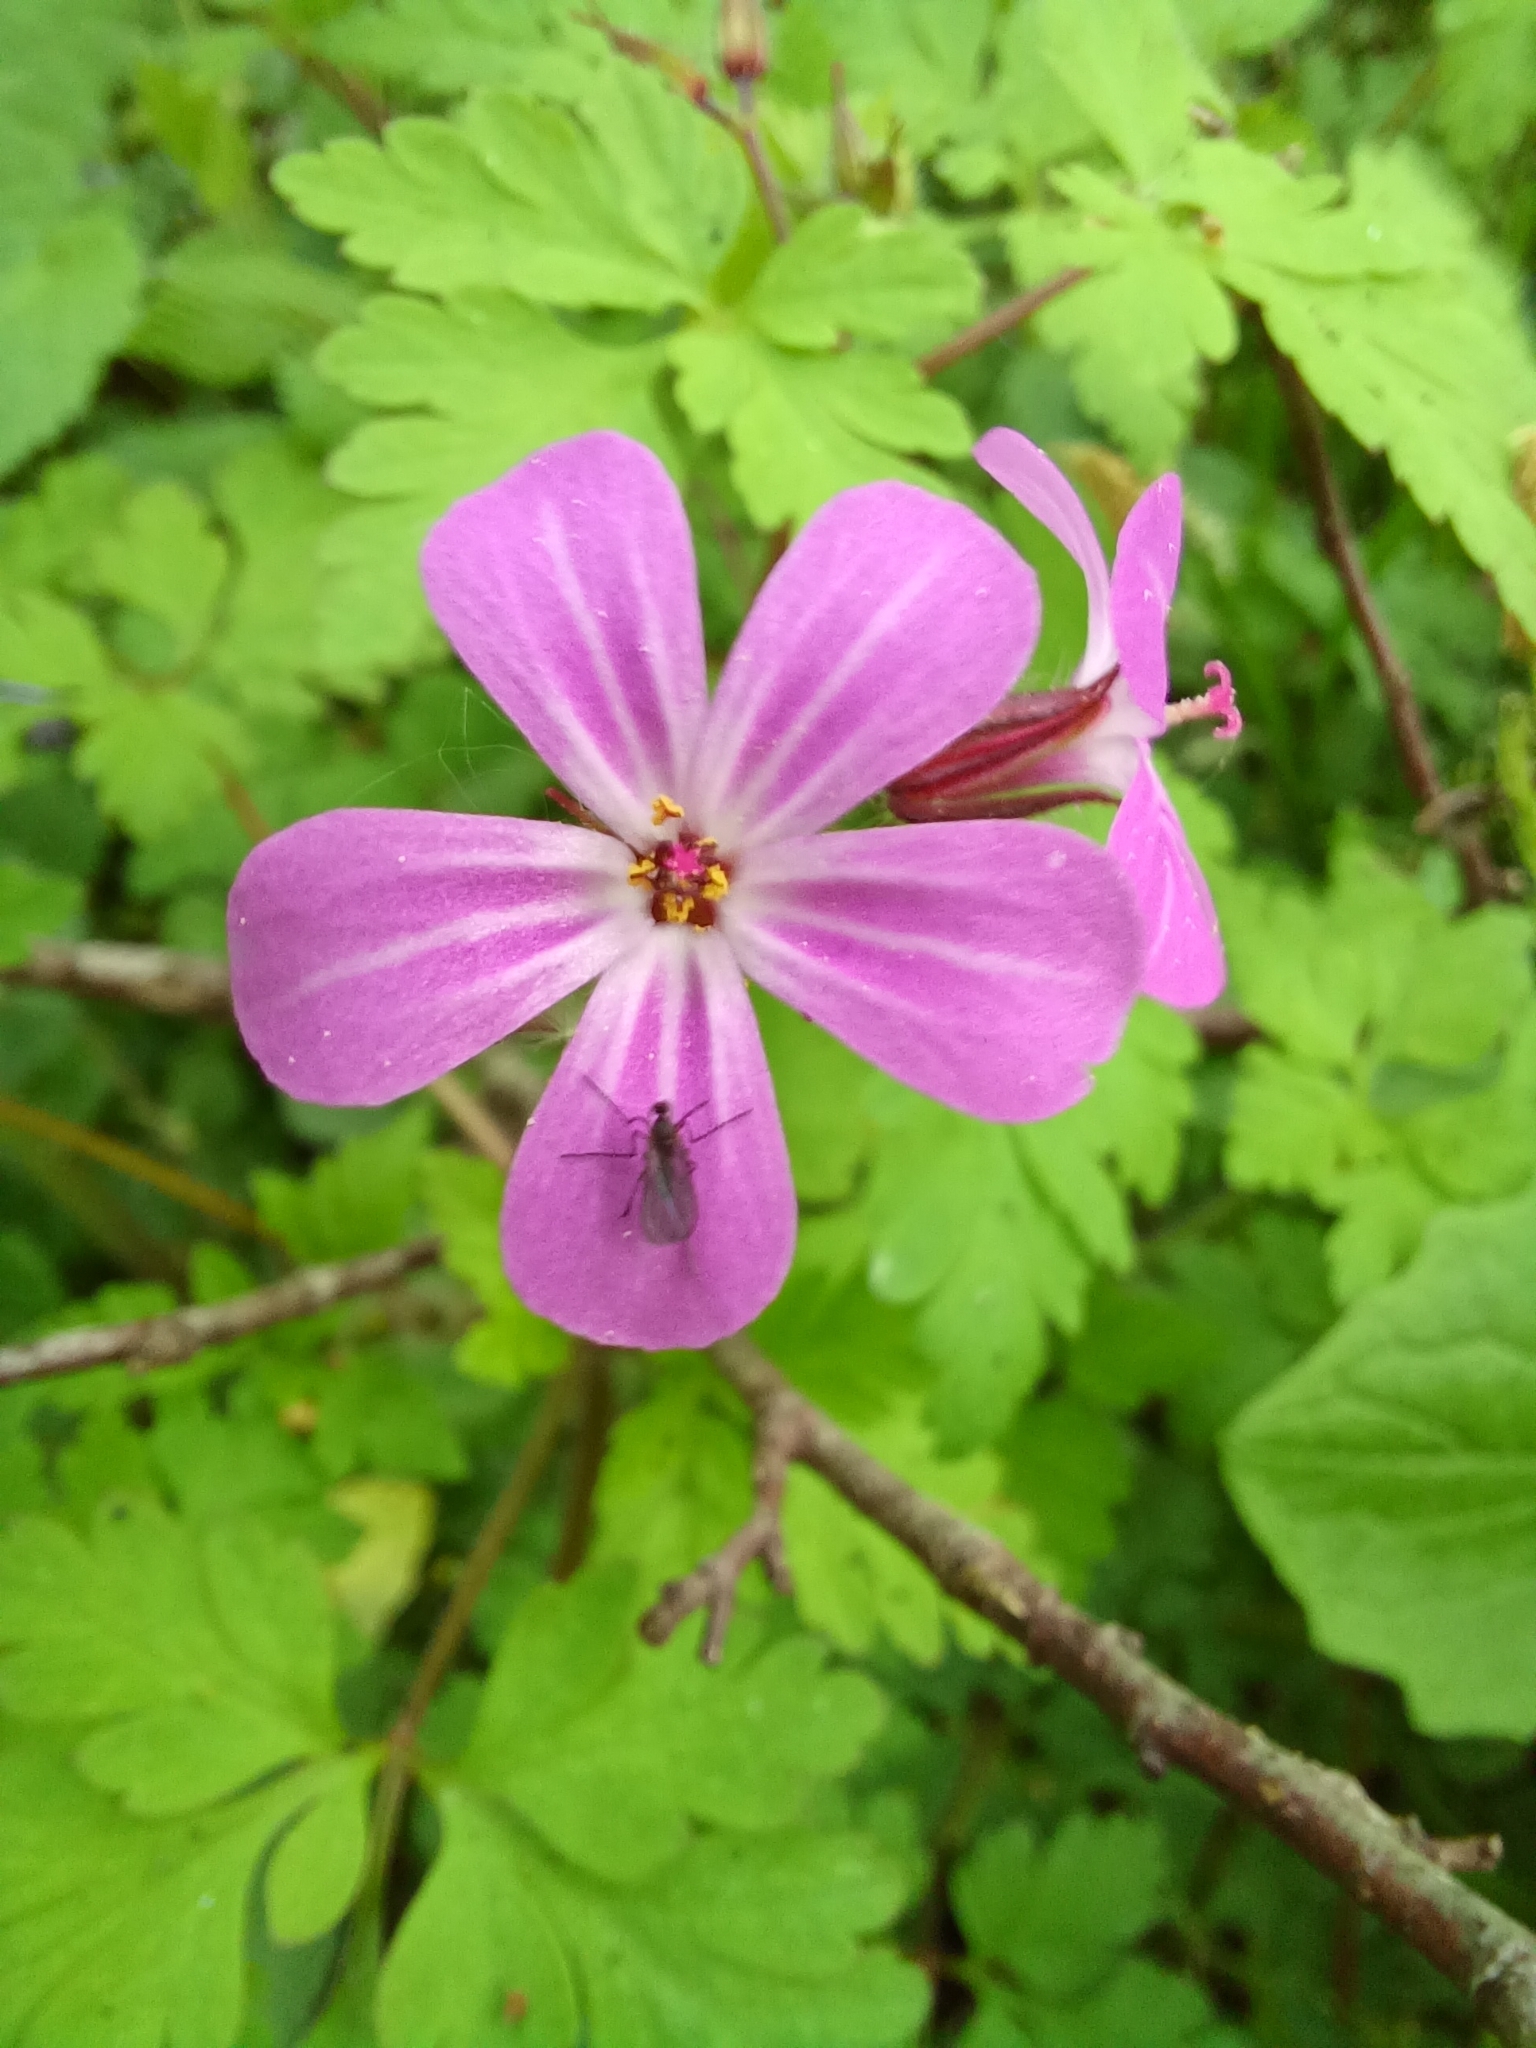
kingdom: Plantae
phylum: Tracheophyta
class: Magnoliopsida
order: Geraniales
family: Geraniaceae
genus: Geranium
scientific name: Geranium robertianum
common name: Herb-robert
